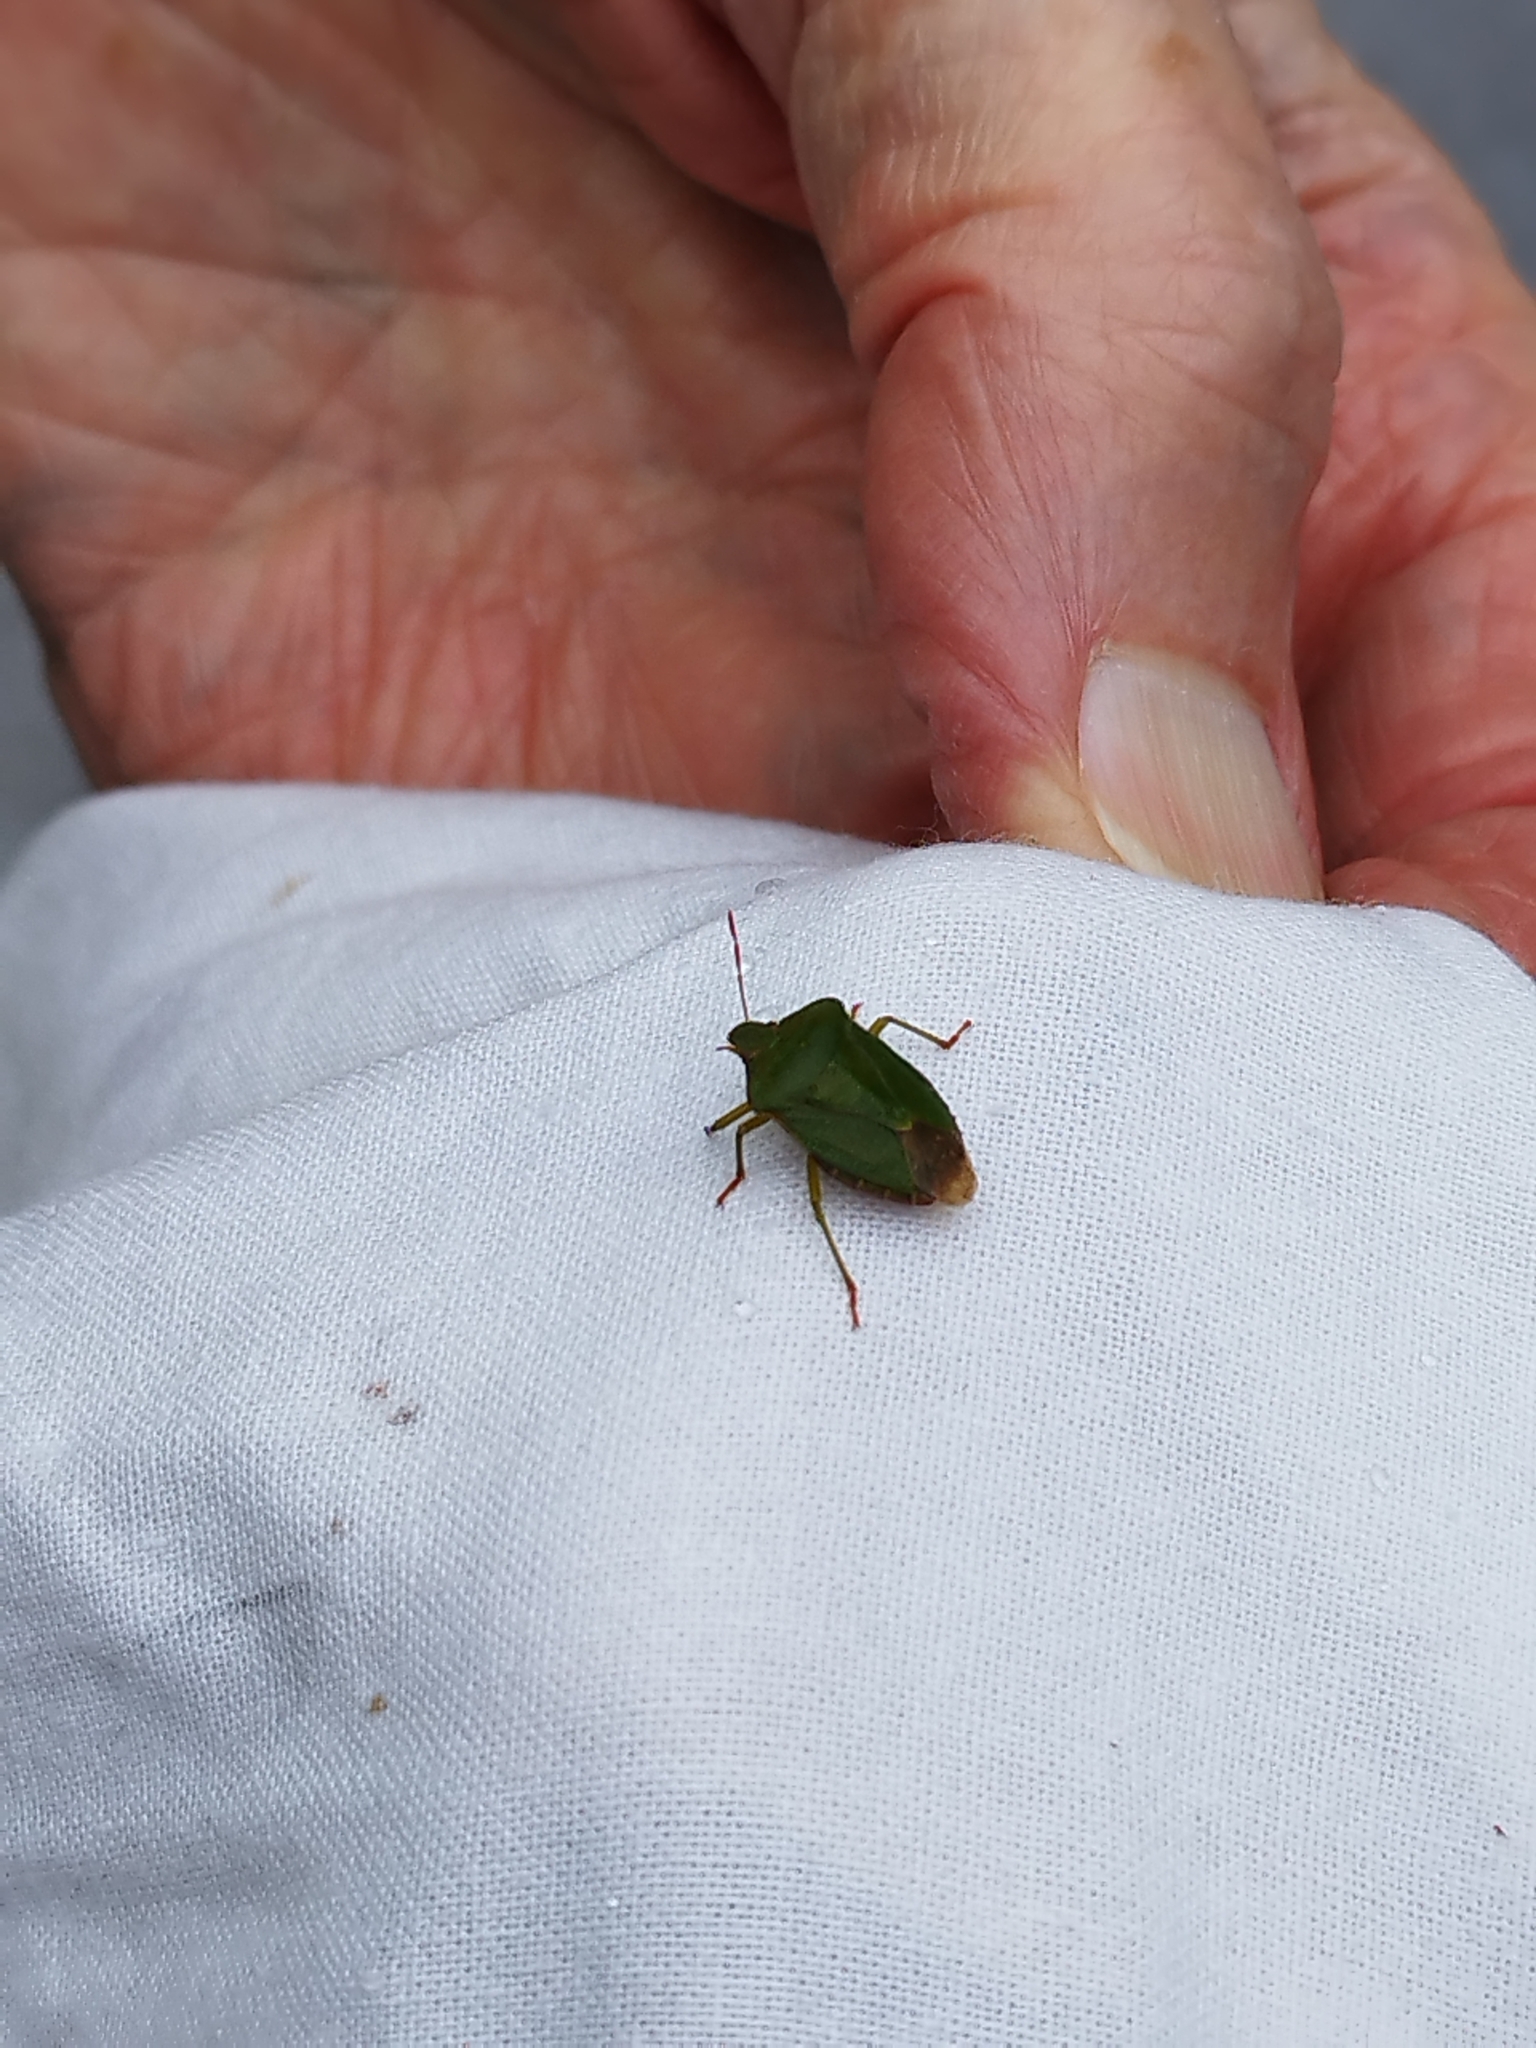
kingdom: Animalia
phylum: Arthropoda
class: Insecta
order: Hemiptera
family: Pentatomidae
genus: Palomena
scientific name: Palomena prasina
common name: Green shieldbug
